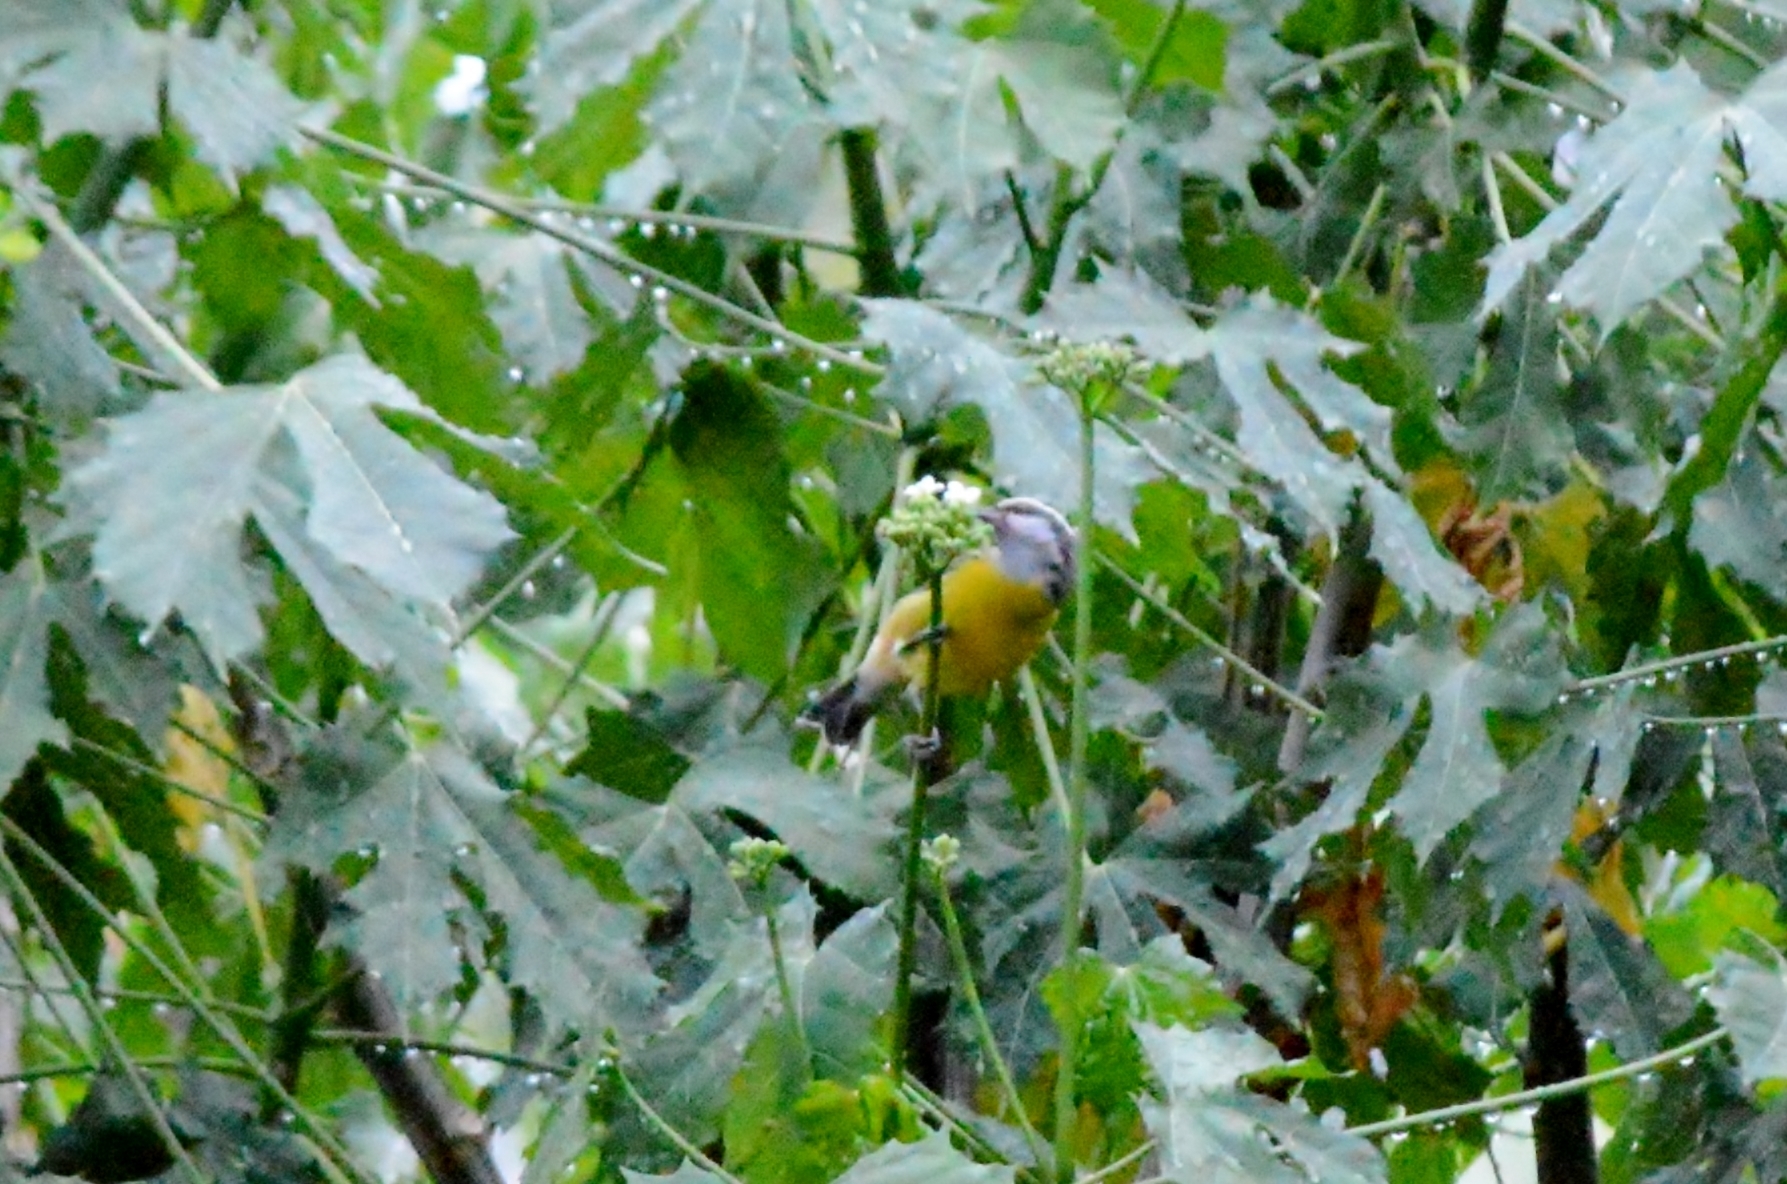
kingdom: Animalia
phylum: Chordata
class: Aves
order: Passeriformes
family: Thraupidae
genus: Coereba
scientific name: Coereba flaveola
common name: Bananaquit
